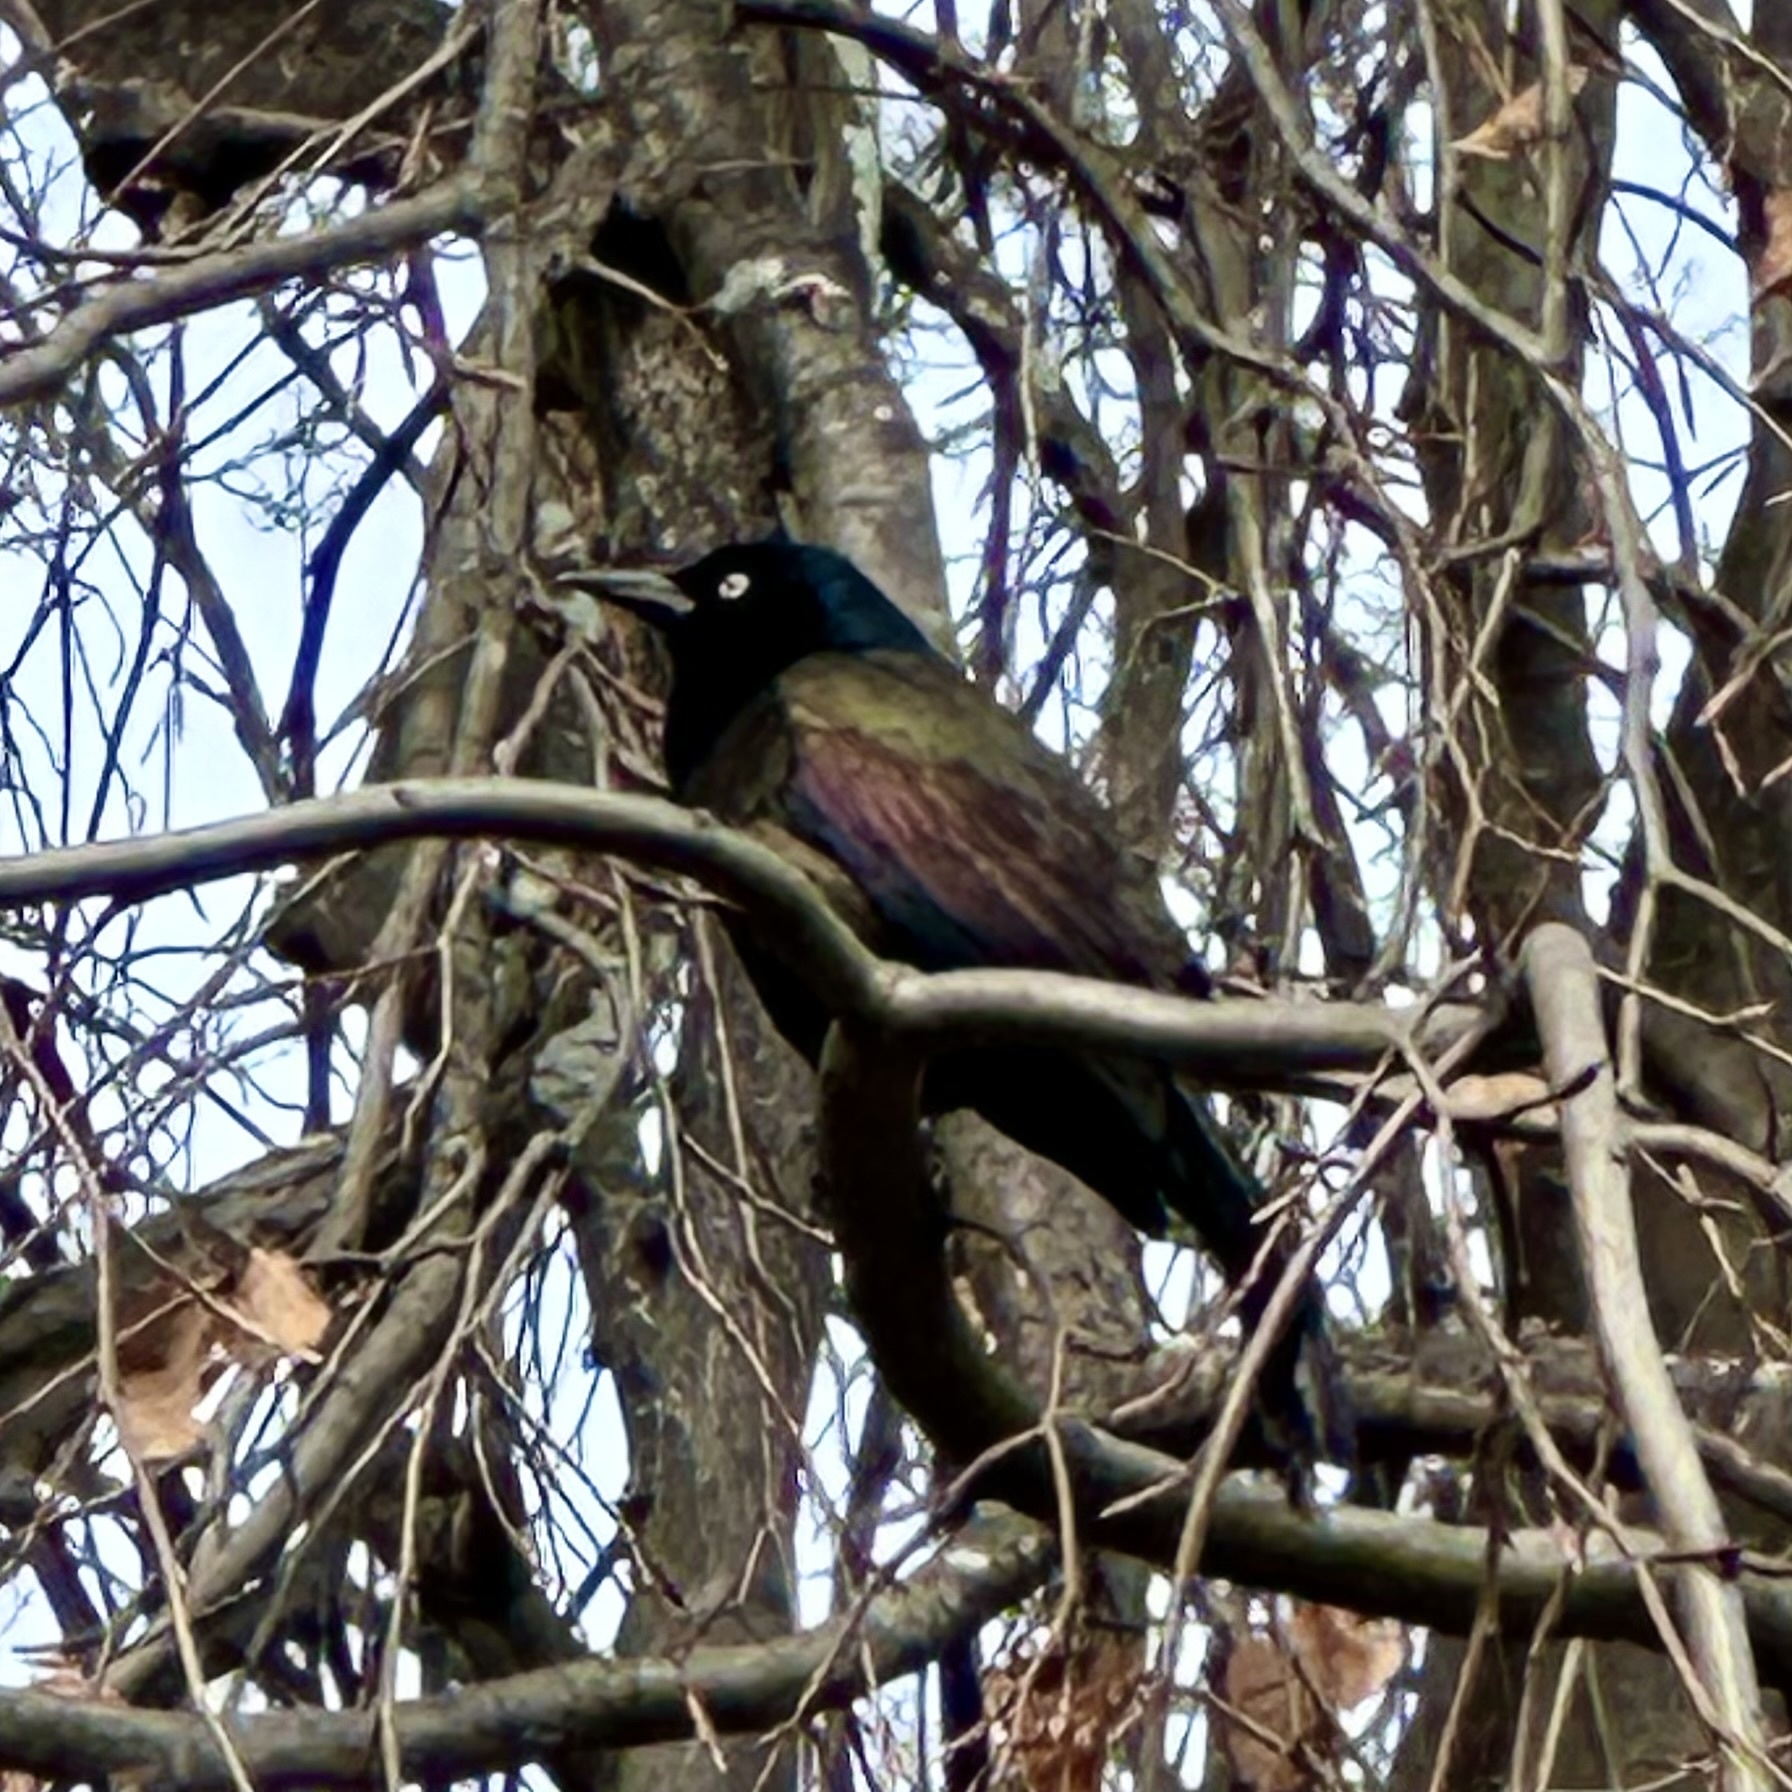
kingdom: Animalia
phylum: Chordata
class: Aves
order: Passeriformes
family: Icteridae
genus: Quiscalus
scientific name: Quiscalus quiscula
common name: Common grackle
